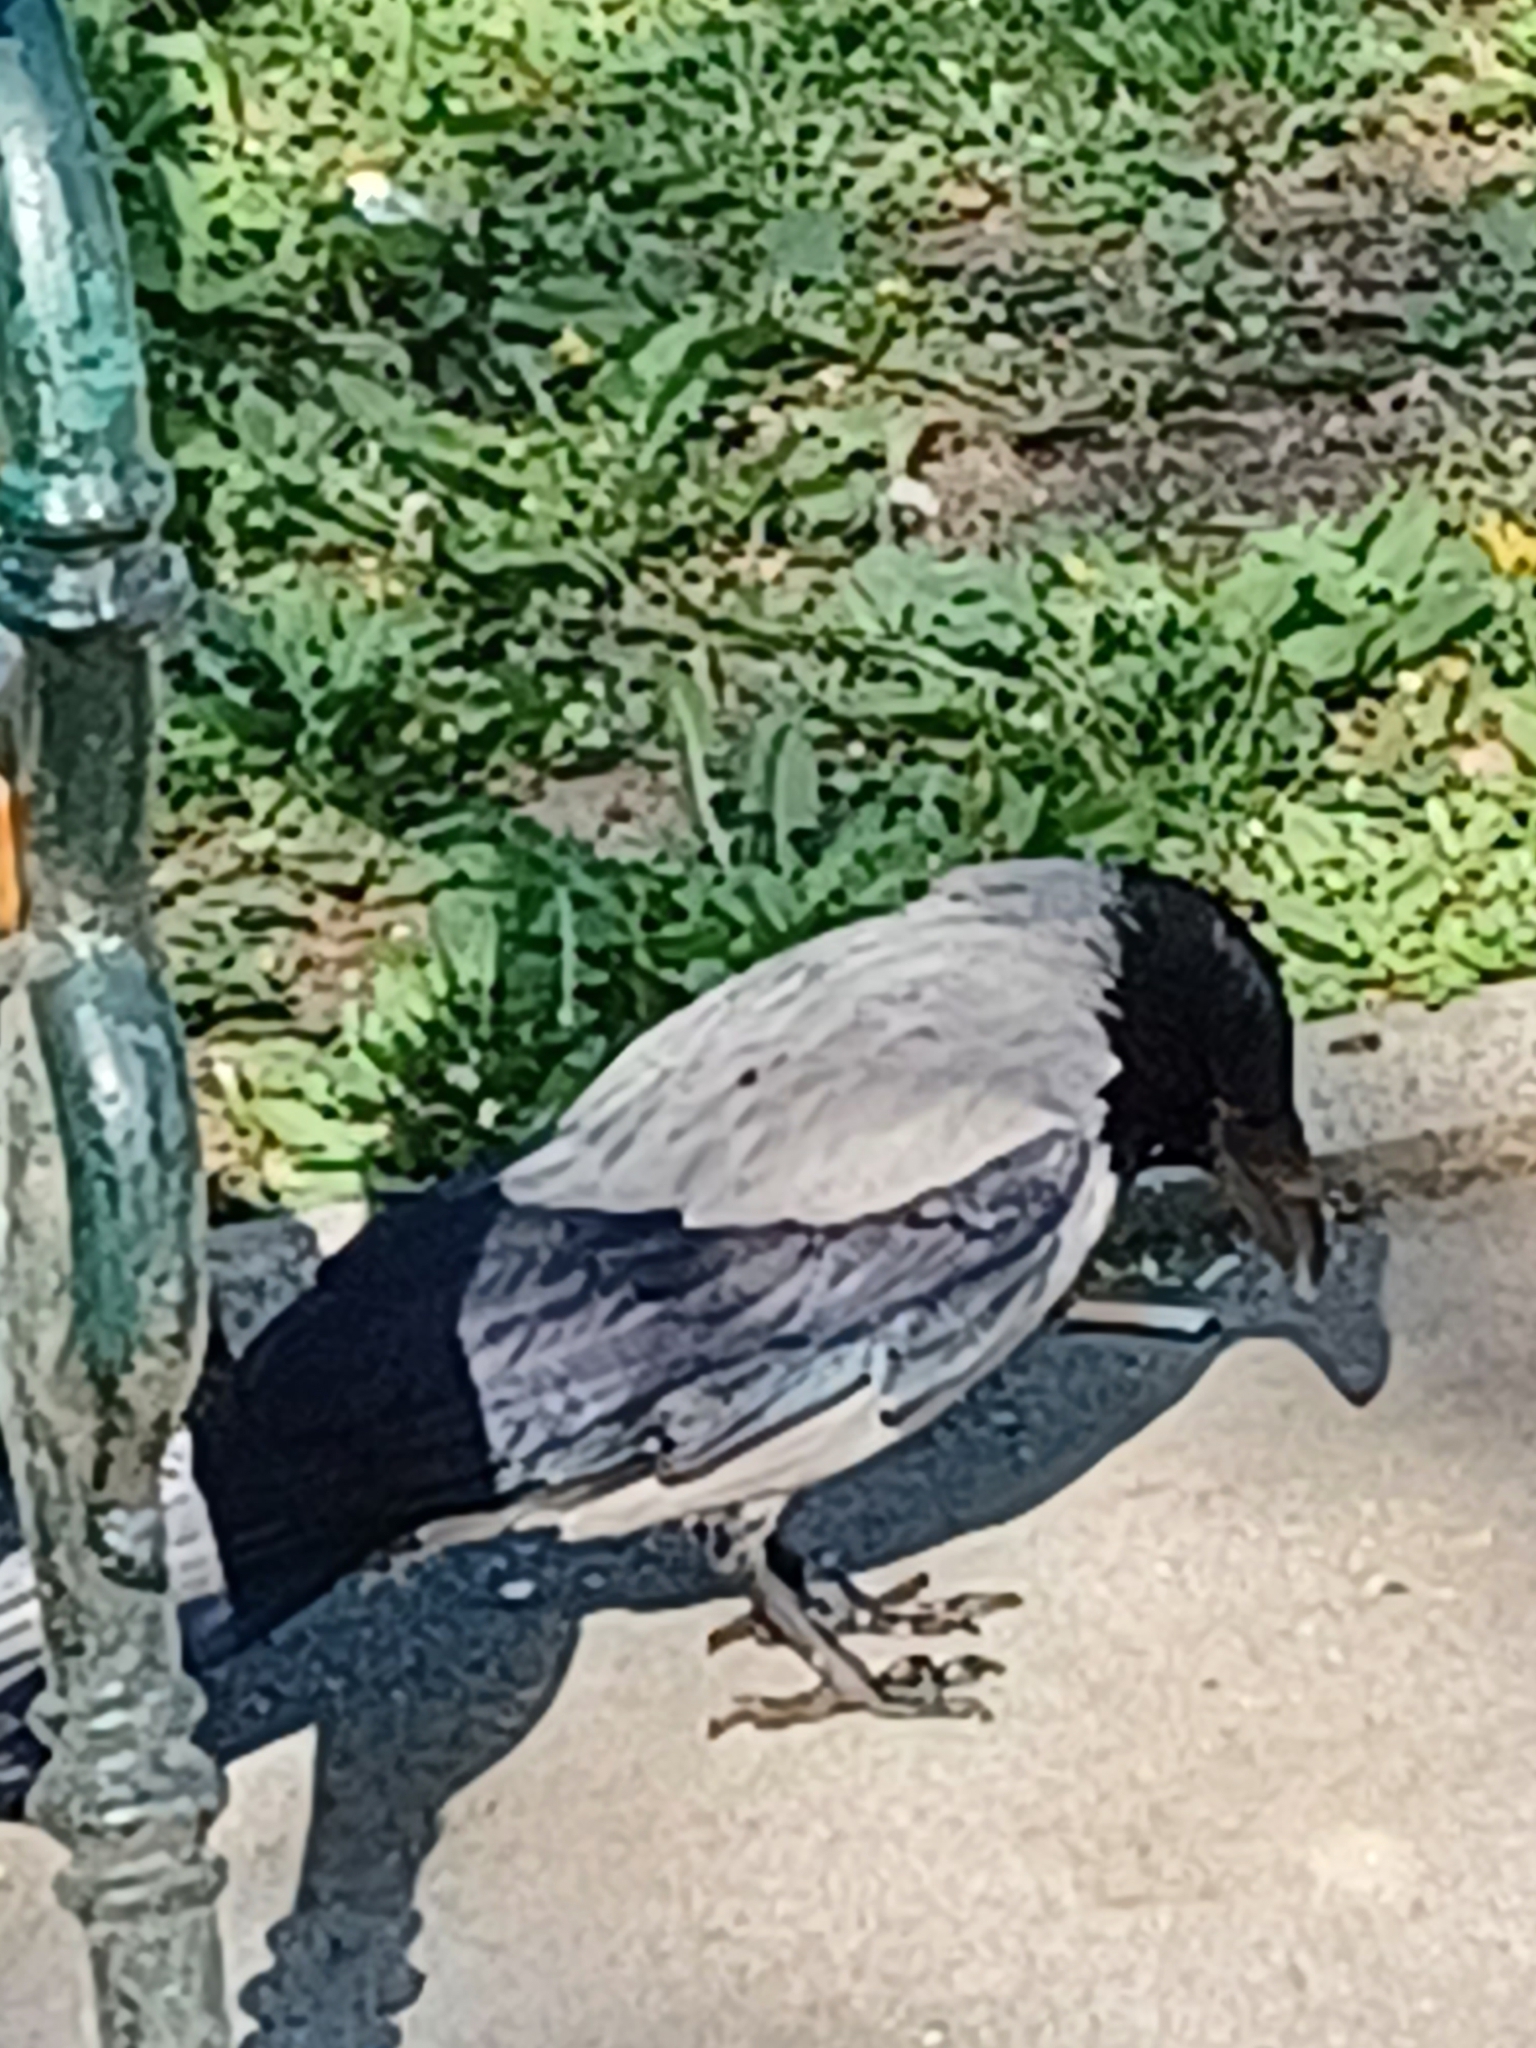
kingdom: Animalia
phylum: Chordata
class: Aves
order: Passeriformes
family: Corvidae
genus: Corvus
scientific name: Corvus cornix
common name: Hooded crow
